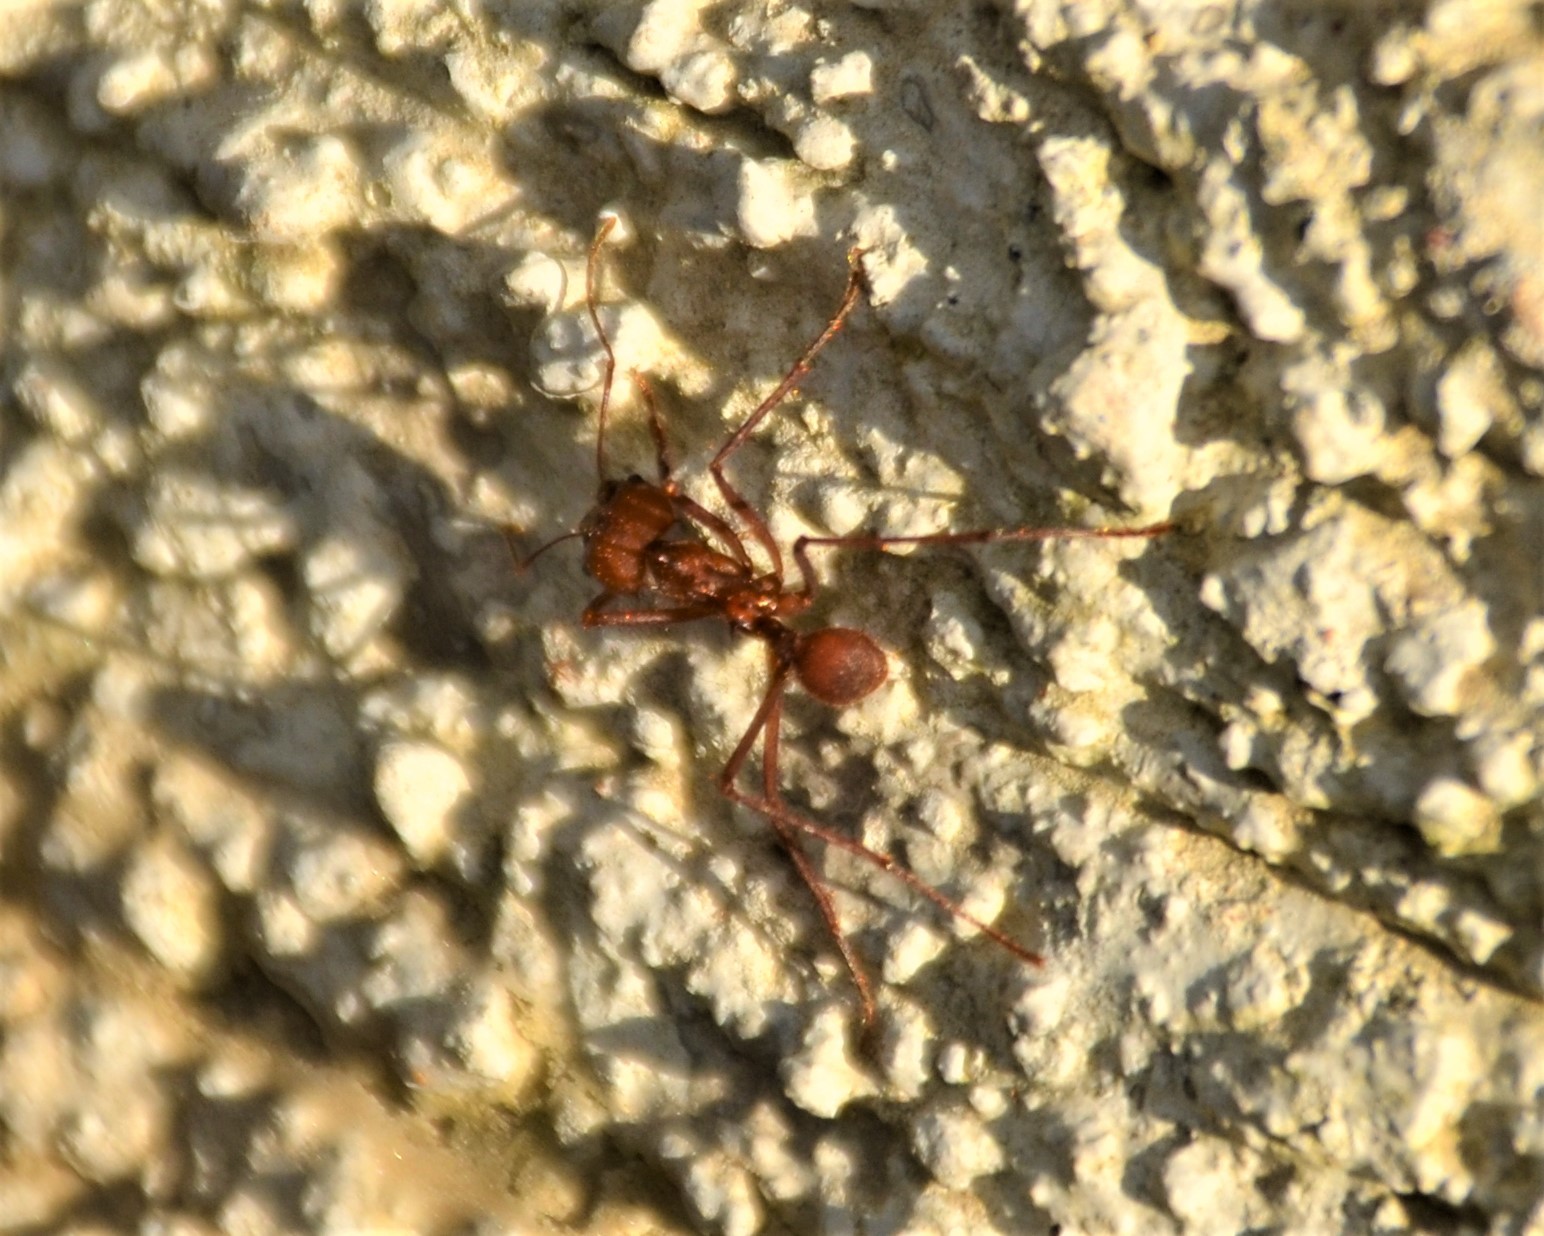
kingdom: Animalia
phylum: Arthropoda
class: Insecta
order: Hymenoptera
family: Formicidae
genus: Atta
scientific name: Atta cephalotes
